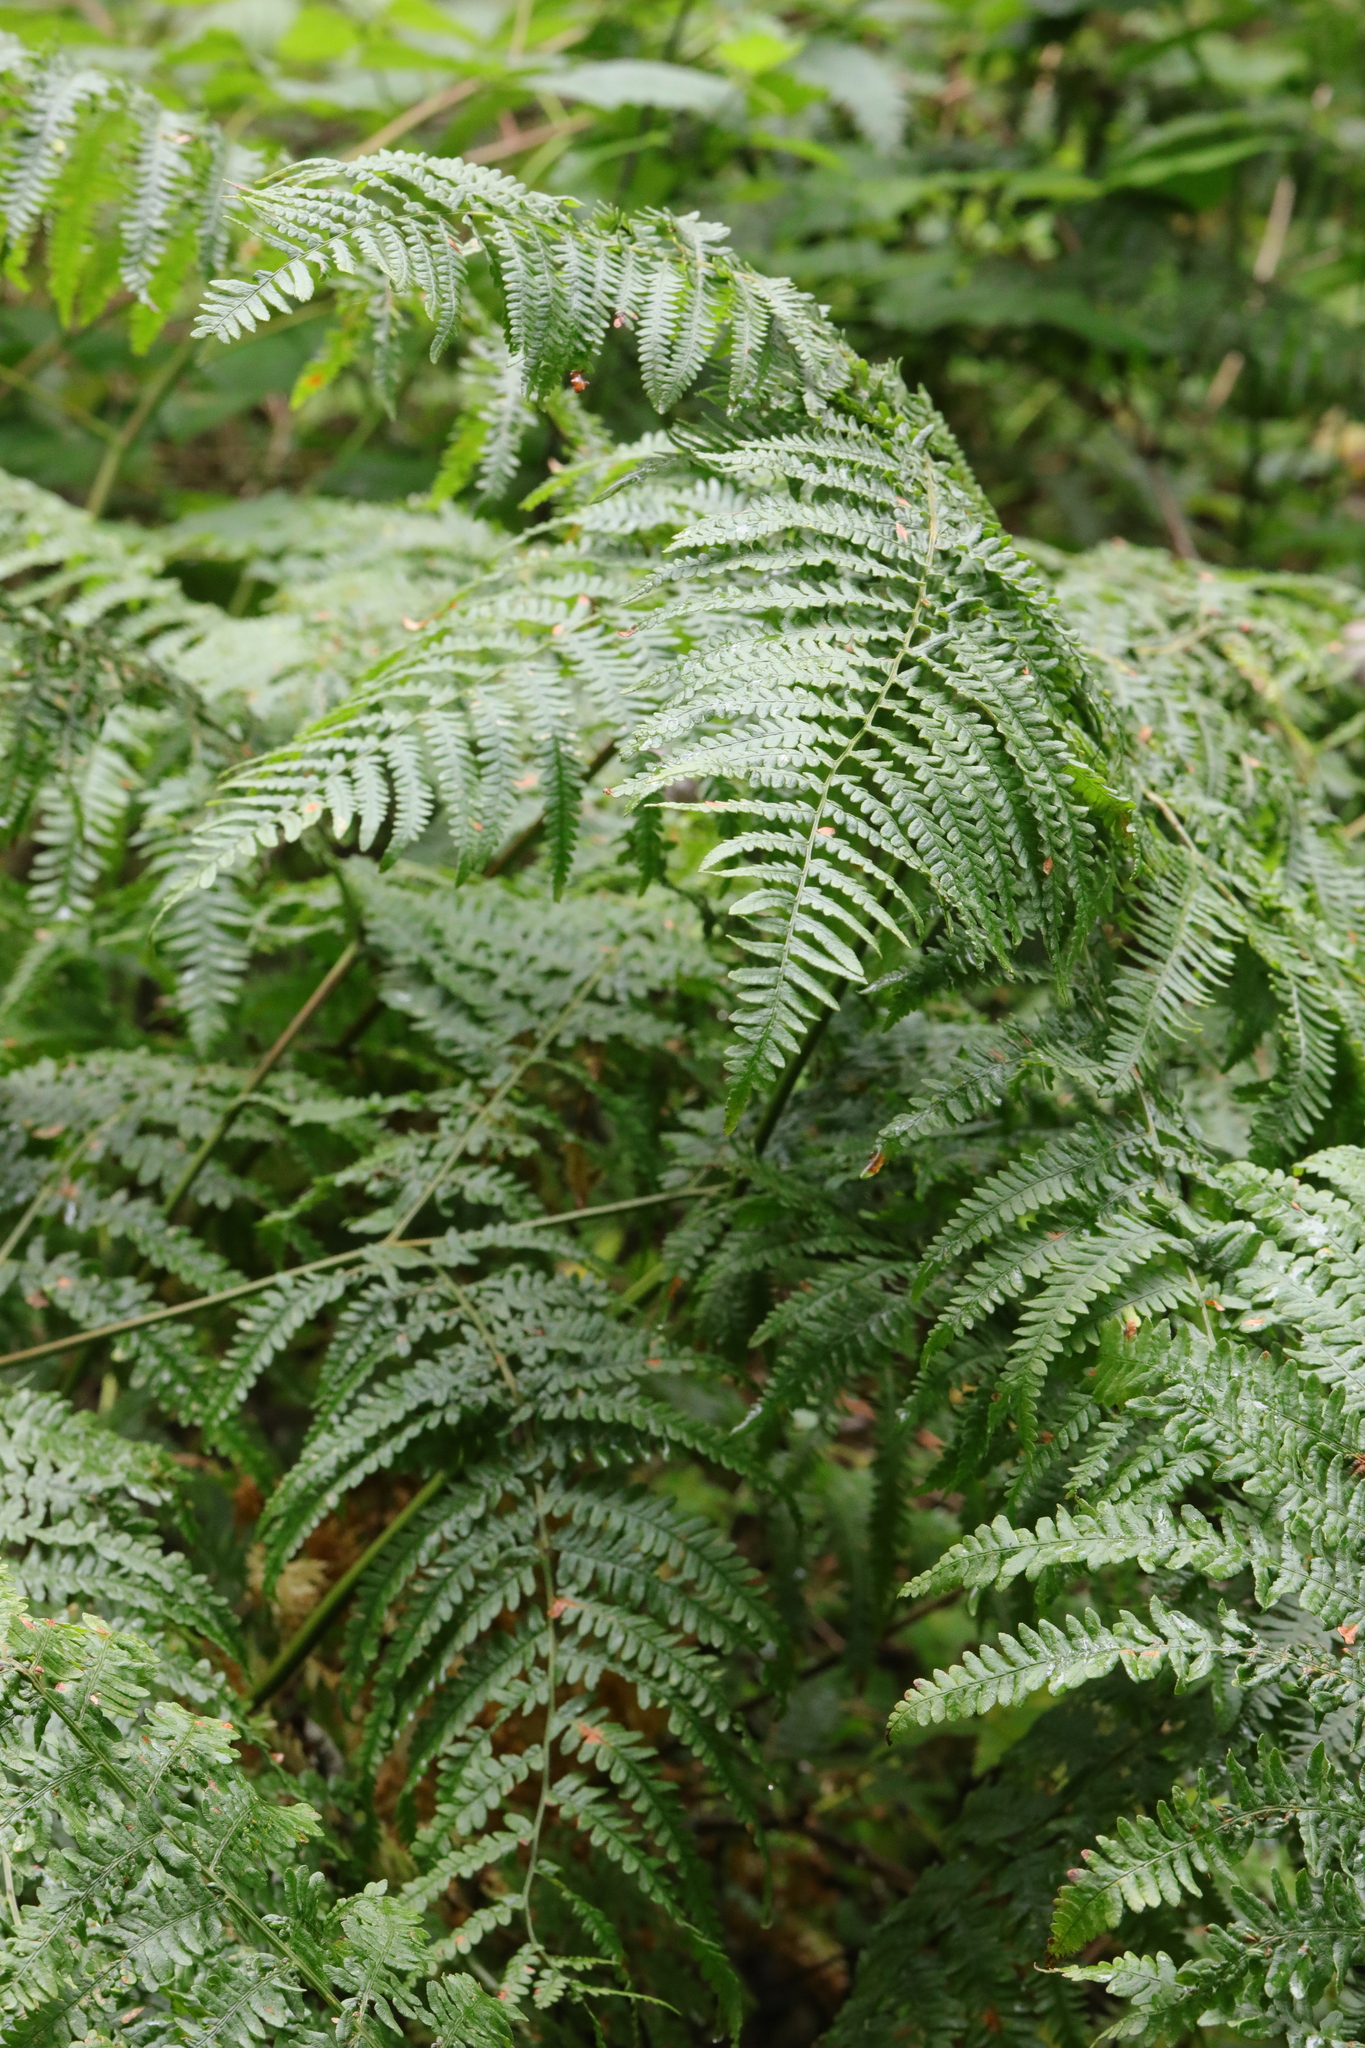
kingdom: Plantae
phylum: Tracheophyta
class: Polypodiopsida
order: Polypodiales
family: Dennstaedtiaceae
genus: Pteridium
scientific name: Pteridium aquilinum
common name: Bracken
